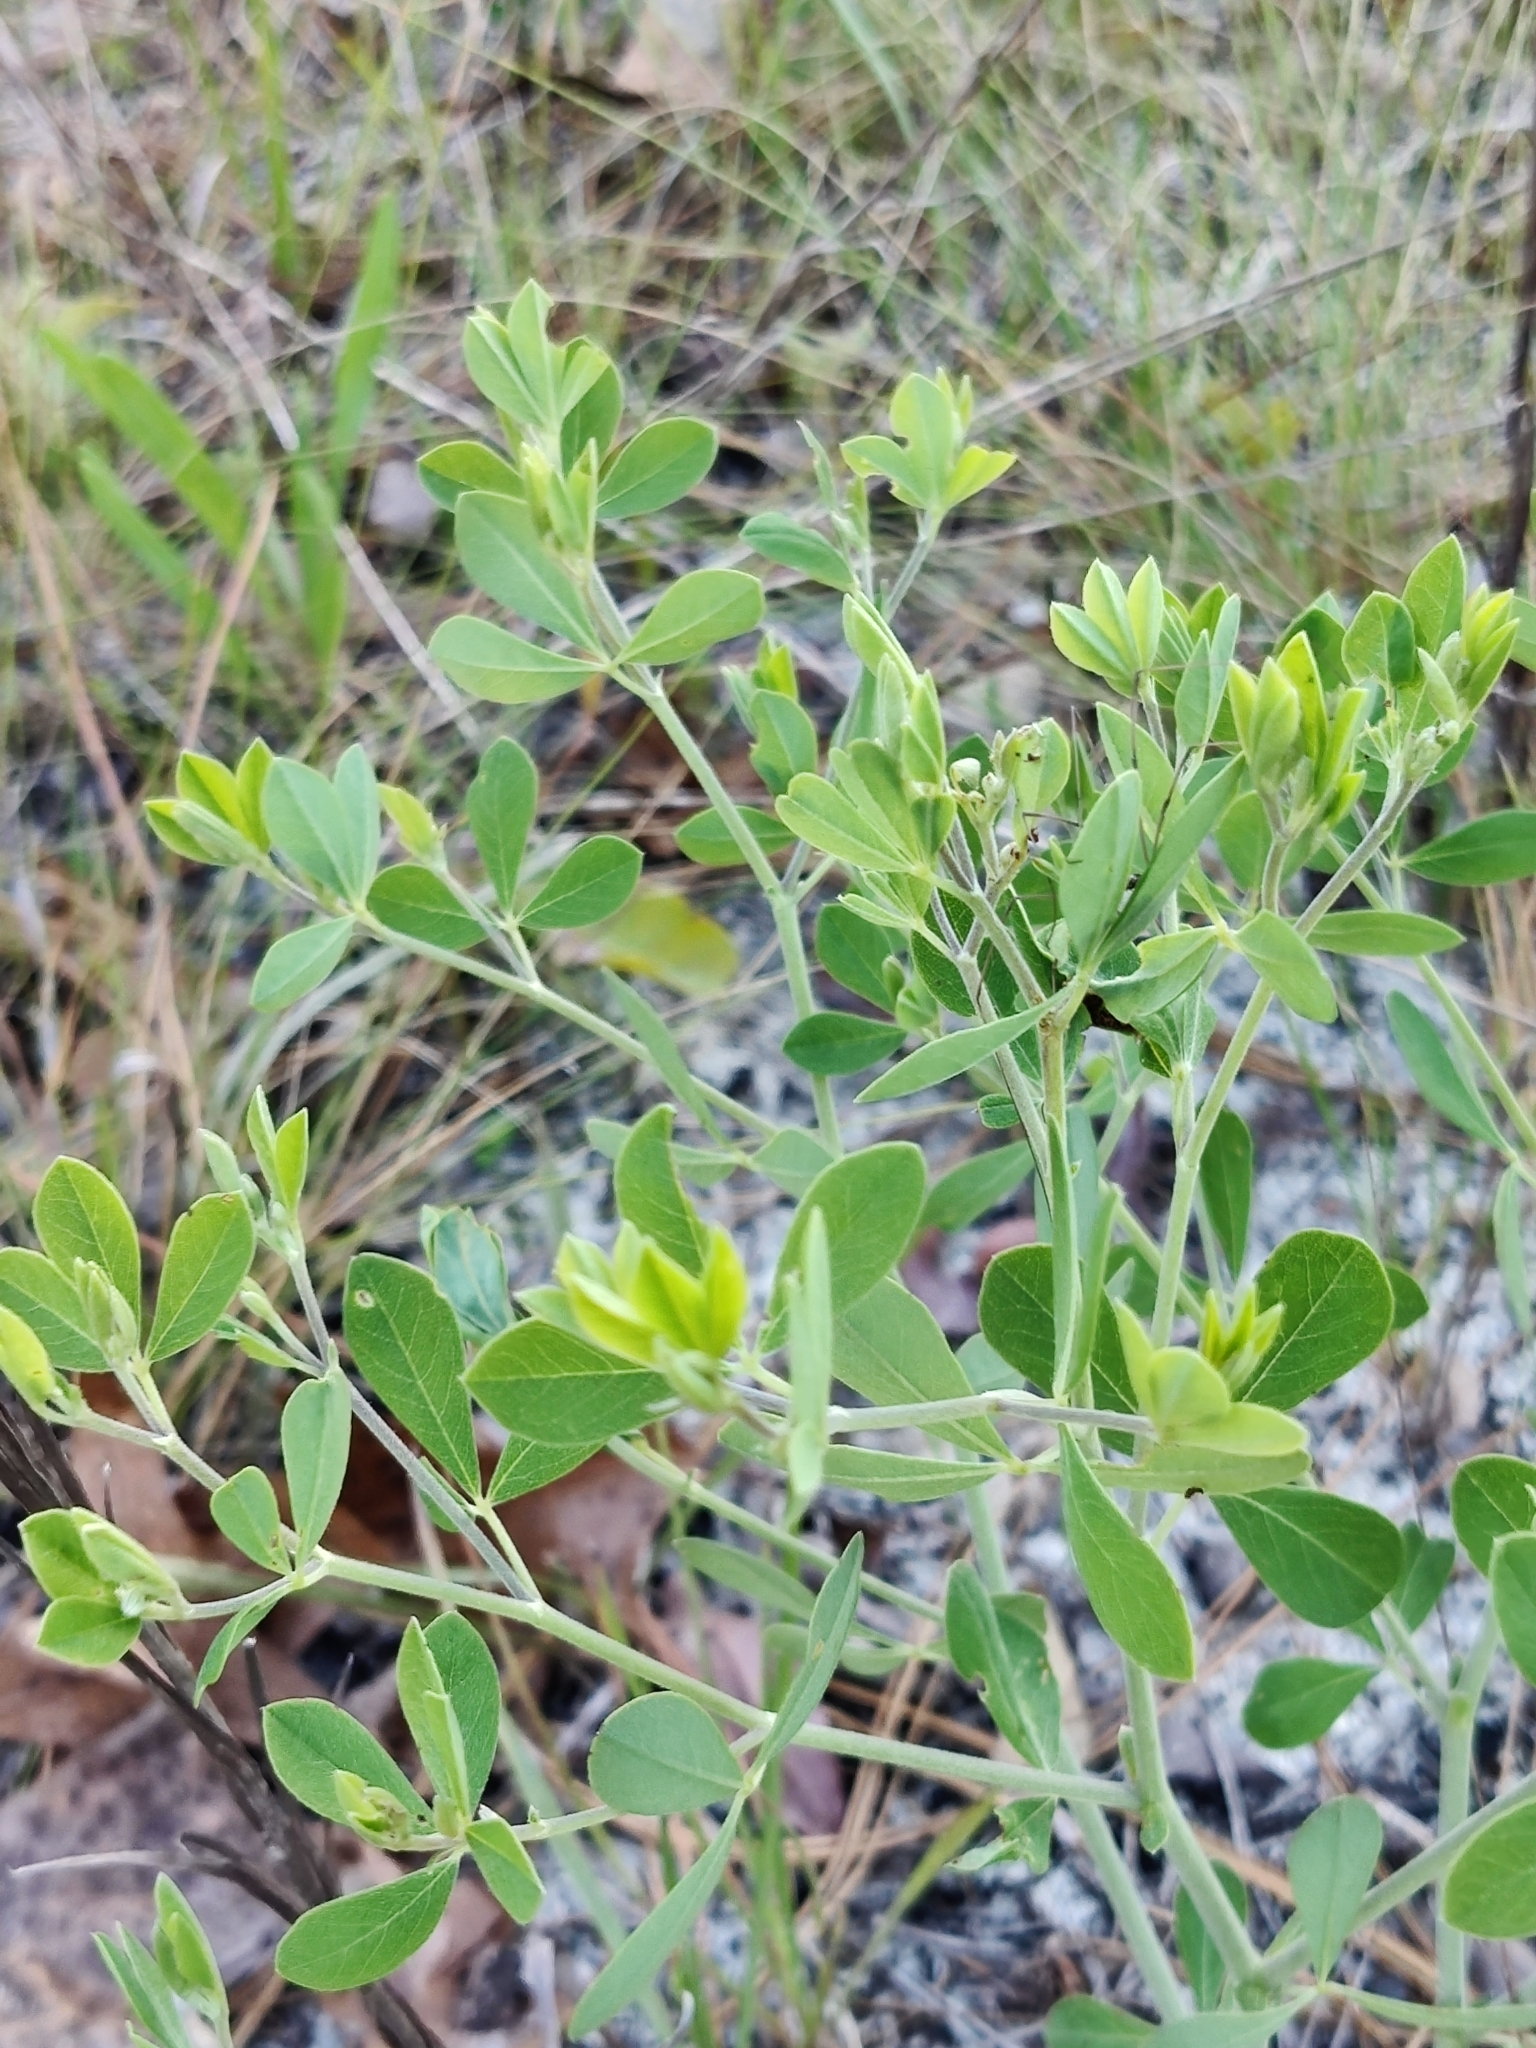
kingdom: Plantae
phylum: Tracheophyta
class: Magnoliopsida
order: Fabales
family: Fabaceae
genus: Baptisia
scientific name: Baptisia lecontei
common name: Pineland wild indigo
